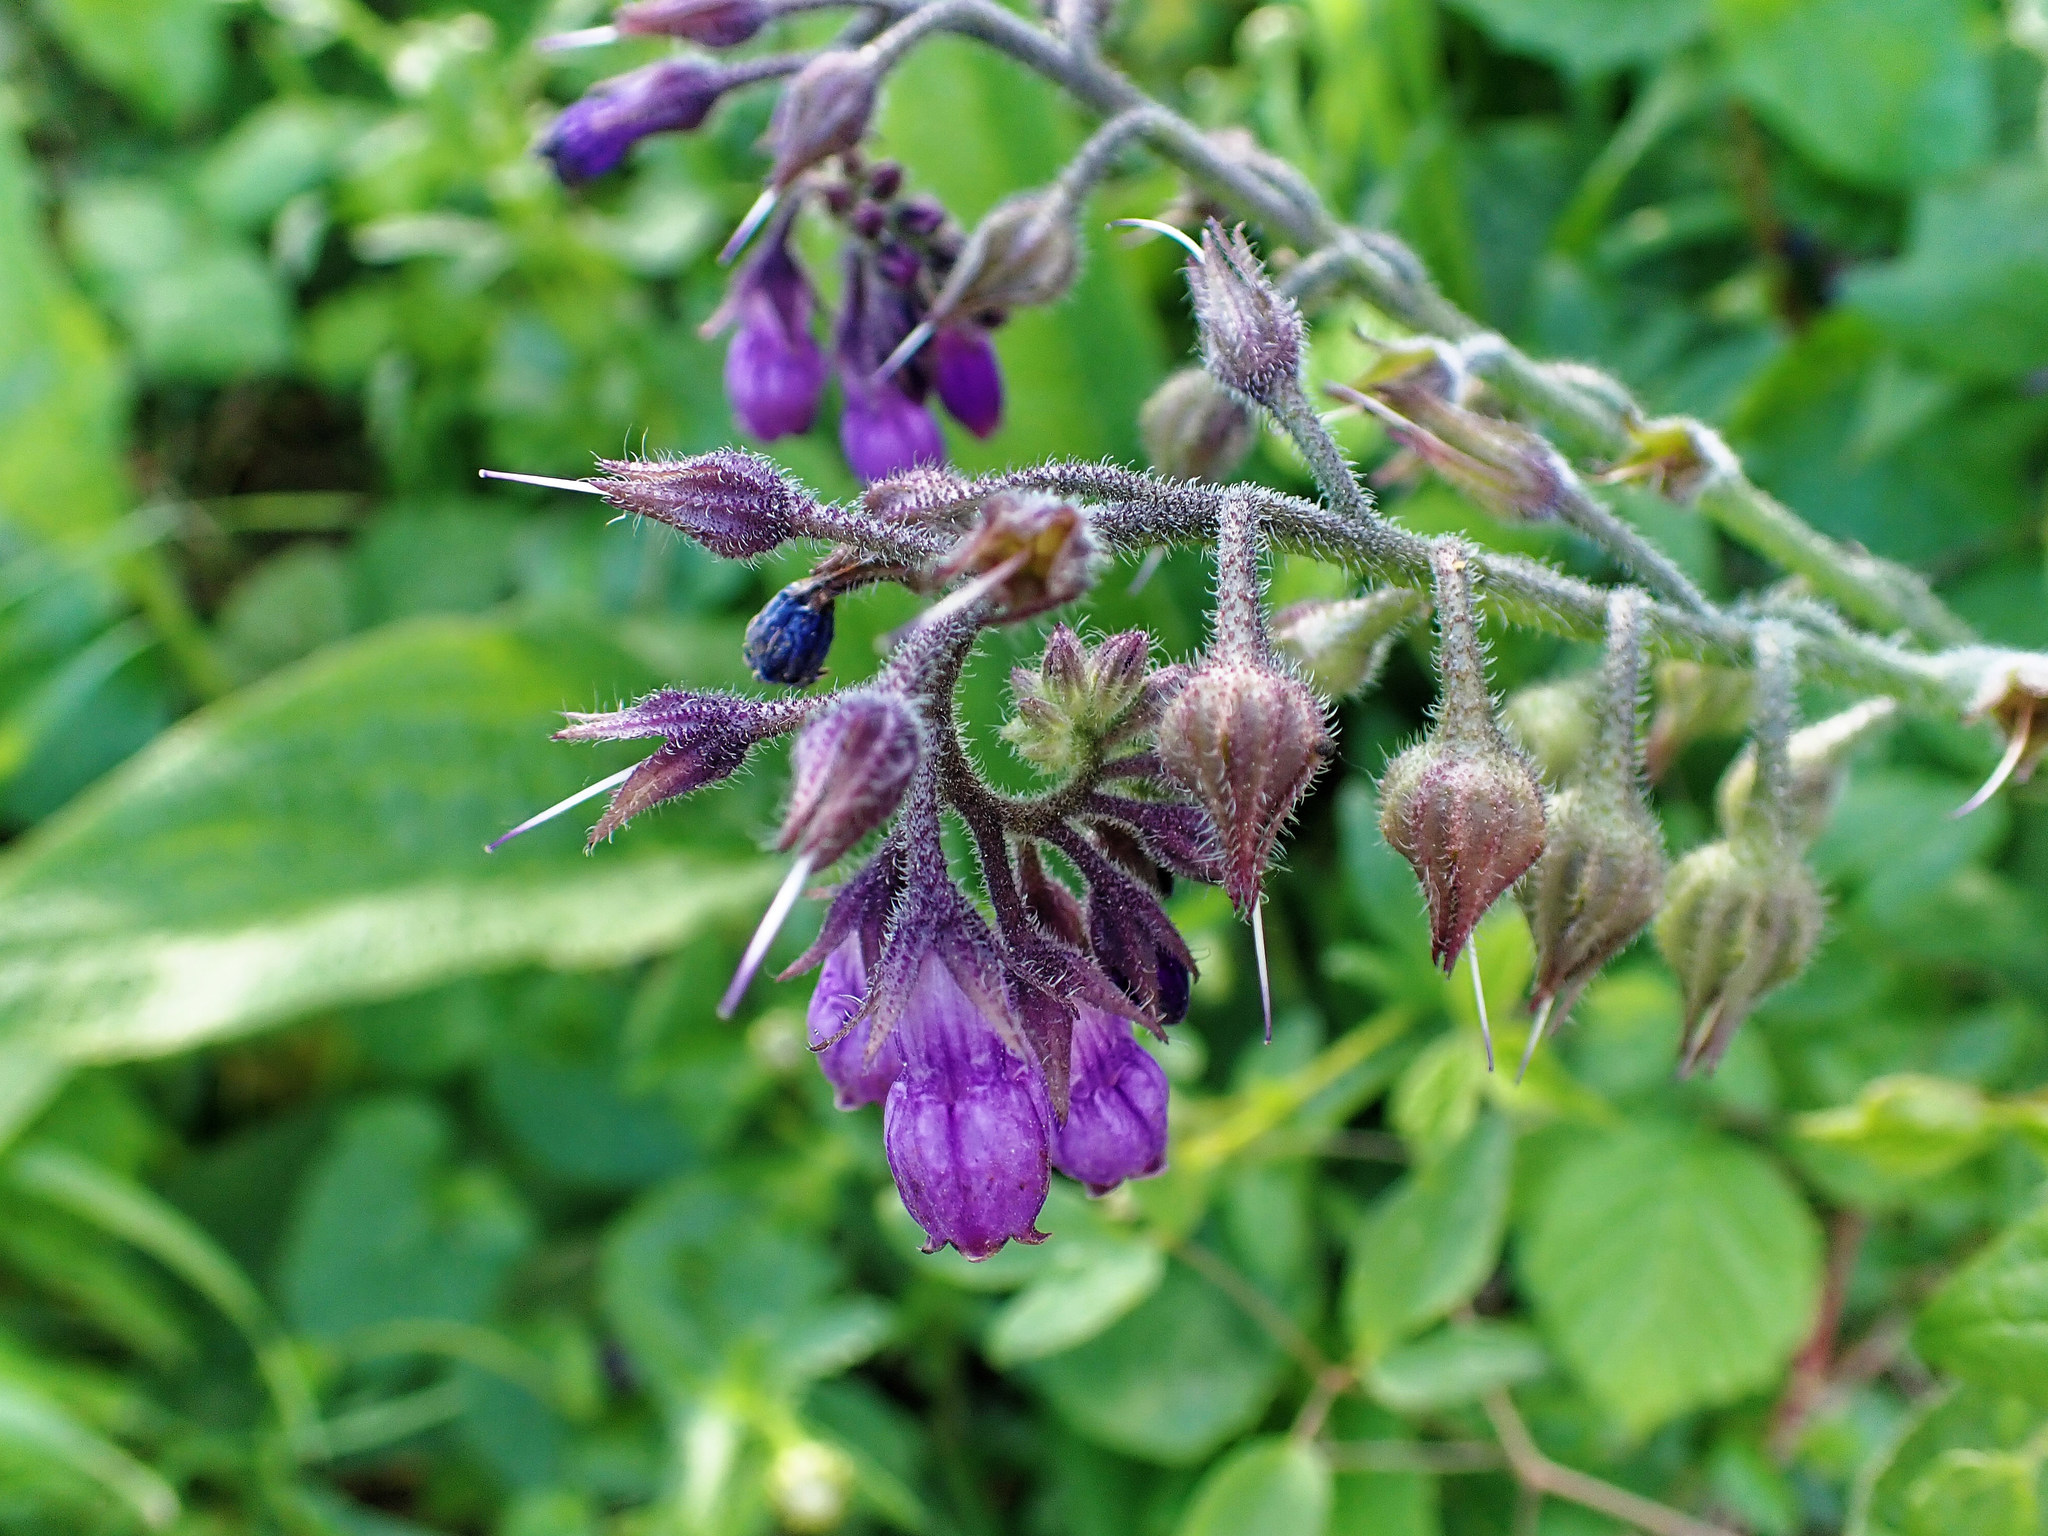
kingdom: Plantae
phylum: Tracheophyta
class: Magnoliopsida
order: Boraginales
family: Boraginaceae
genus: Symphytum
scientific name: Symphytum officinale
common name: Common comfrey
